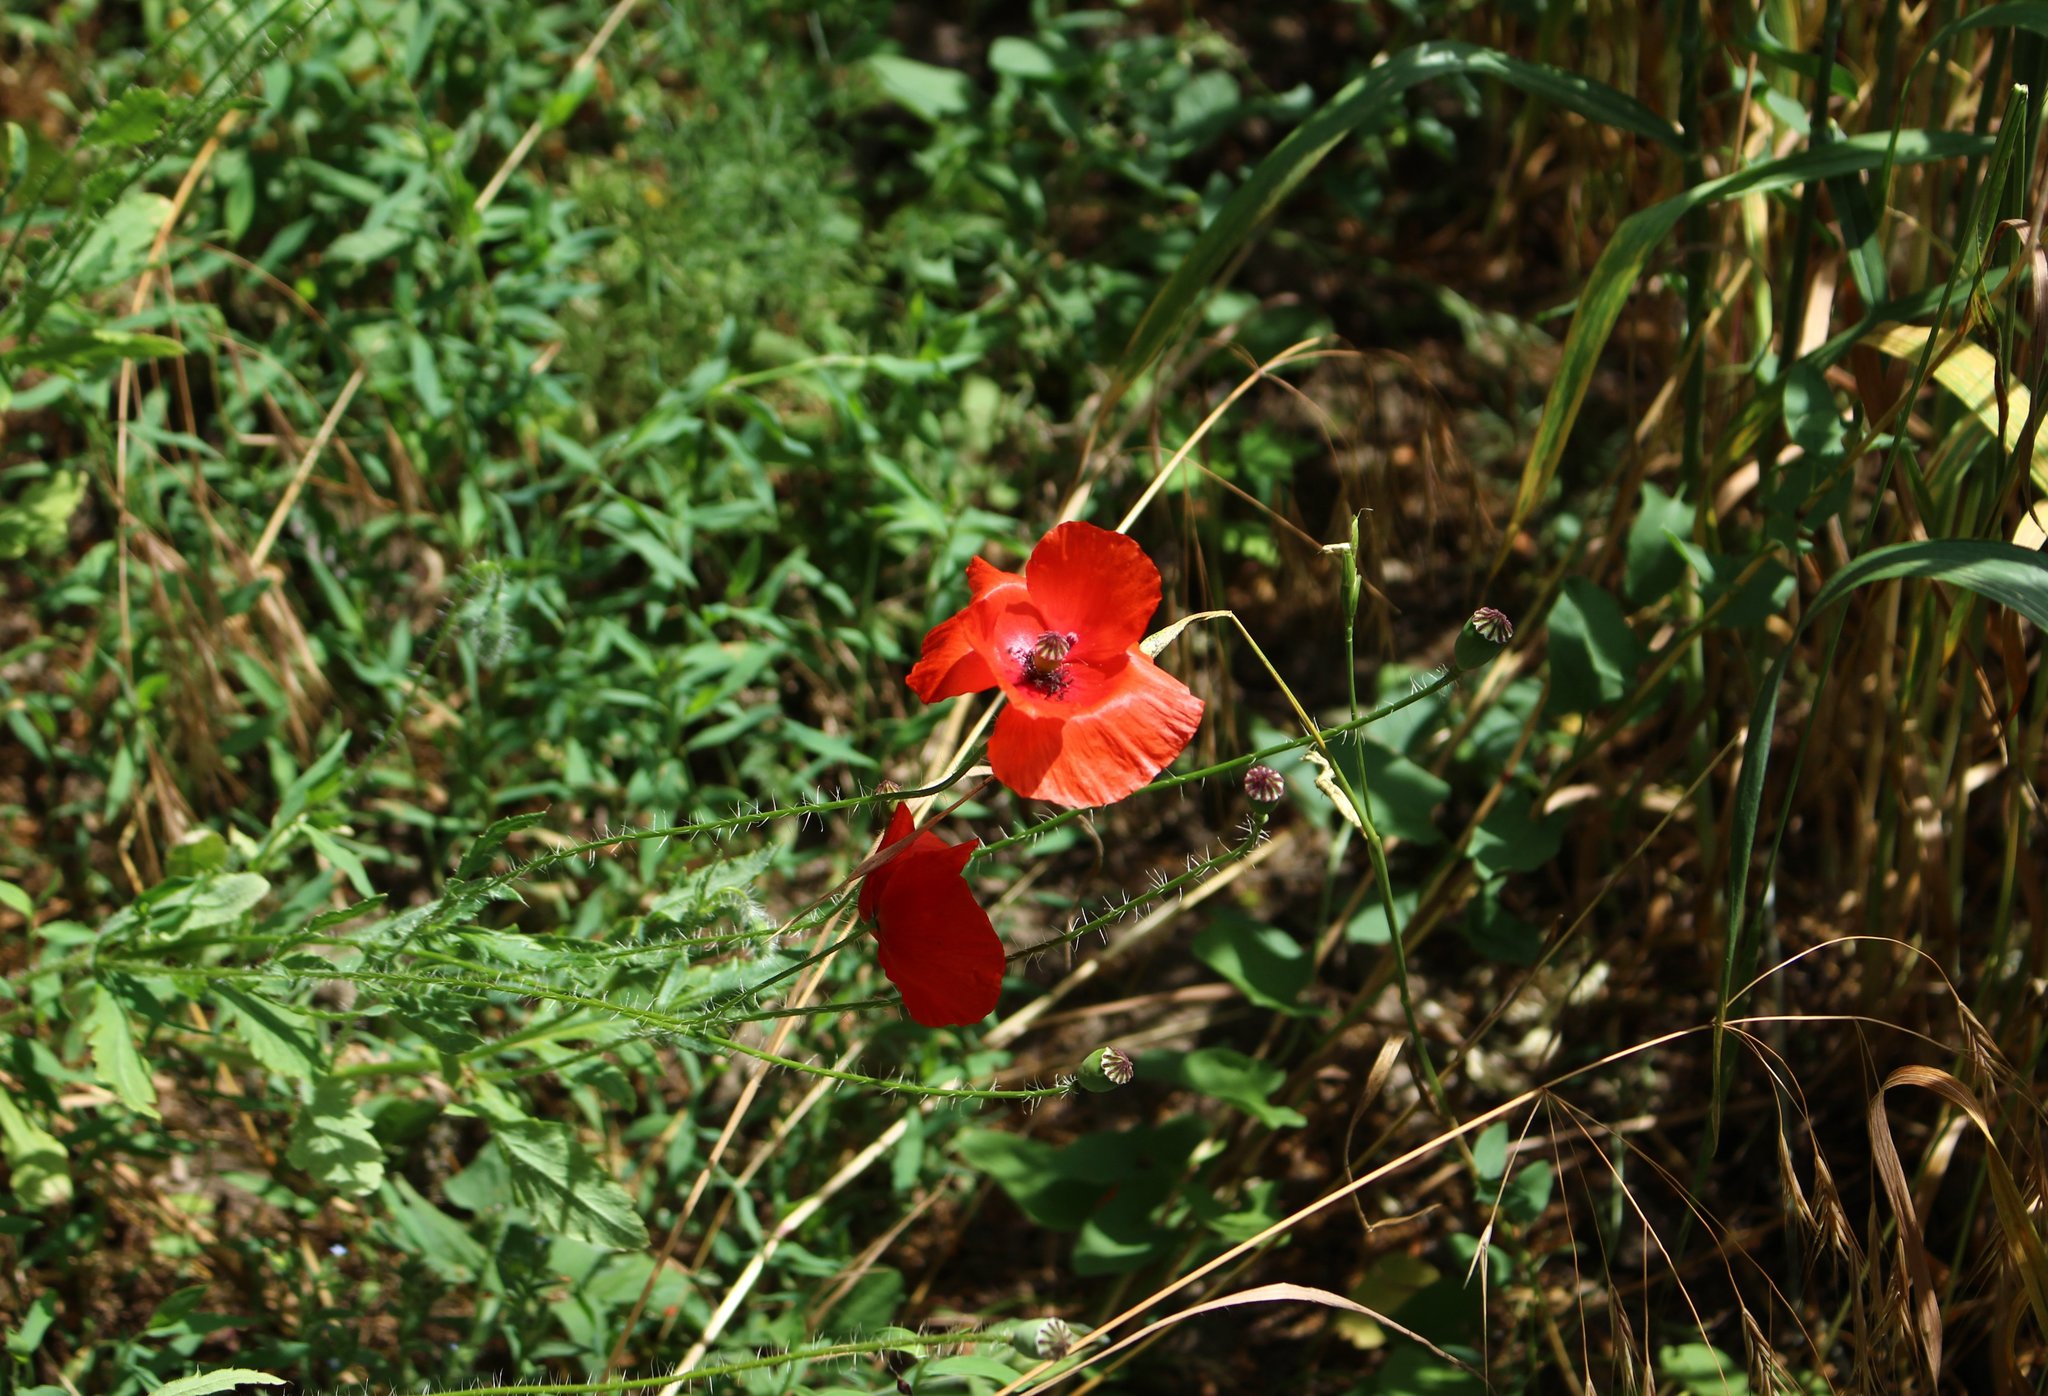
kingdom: Plantae
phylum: Tracheophyta
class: Magnoliopsida
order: Ranunculales
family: Papaveraceae
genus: Papaver
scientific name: Papaver rhoeas
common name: Corn poppy
